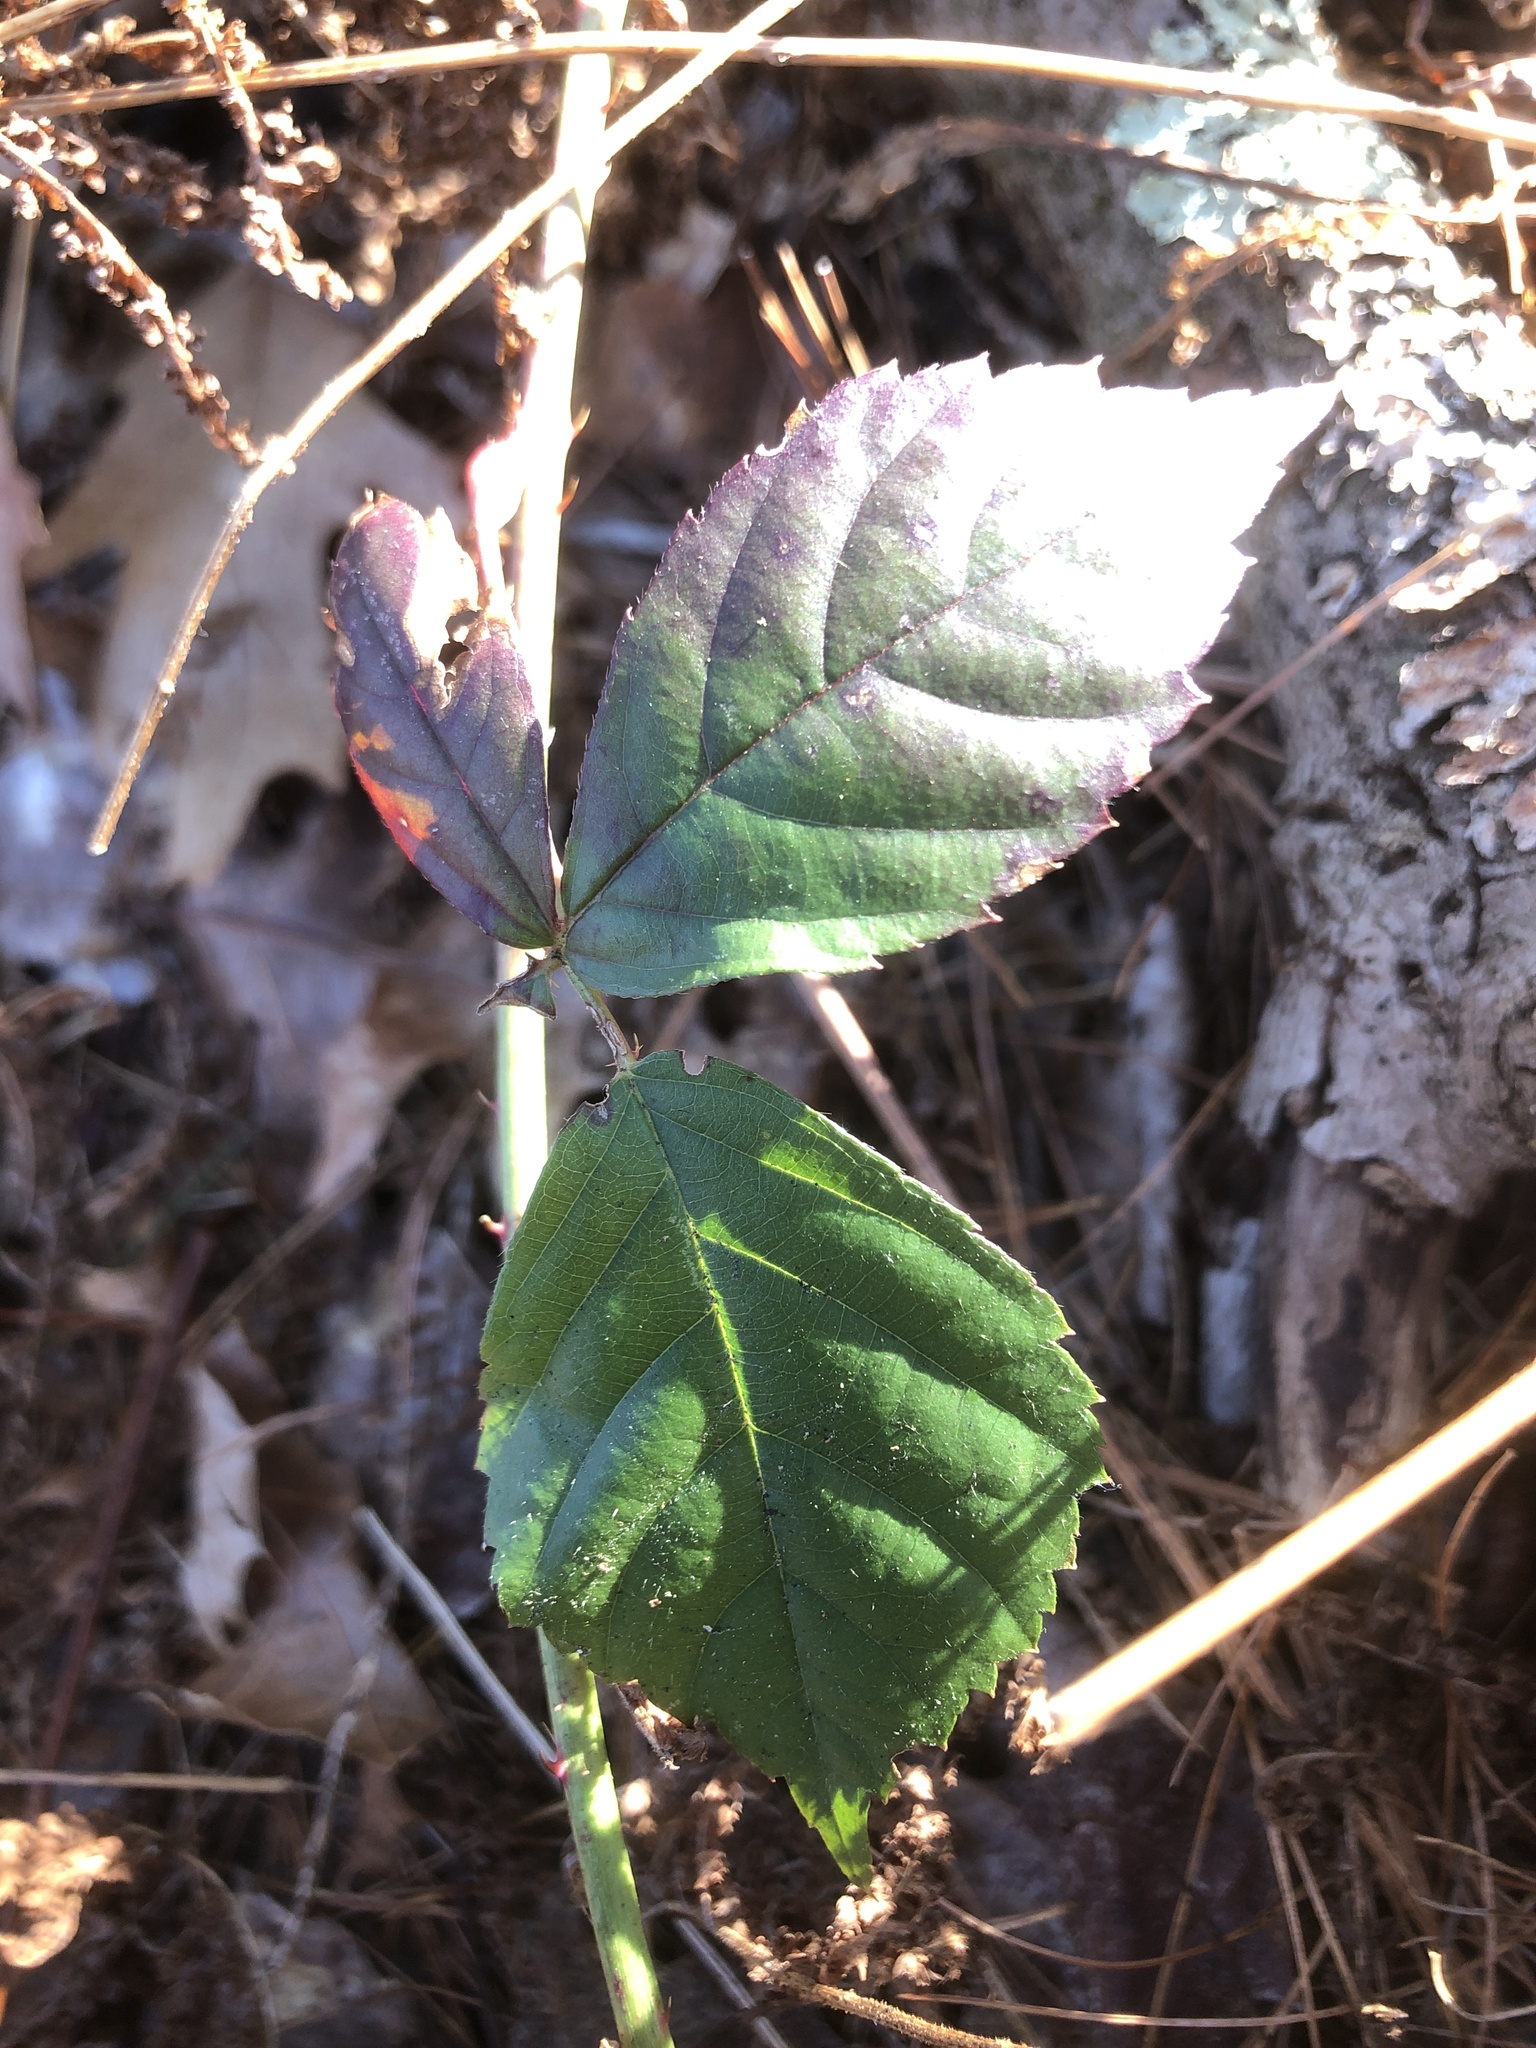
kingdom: Plantae
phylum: Tracheophyta
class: Magnoliopsida
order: Rosales
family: Rosaceae
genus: Rubus
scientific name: Rubus
